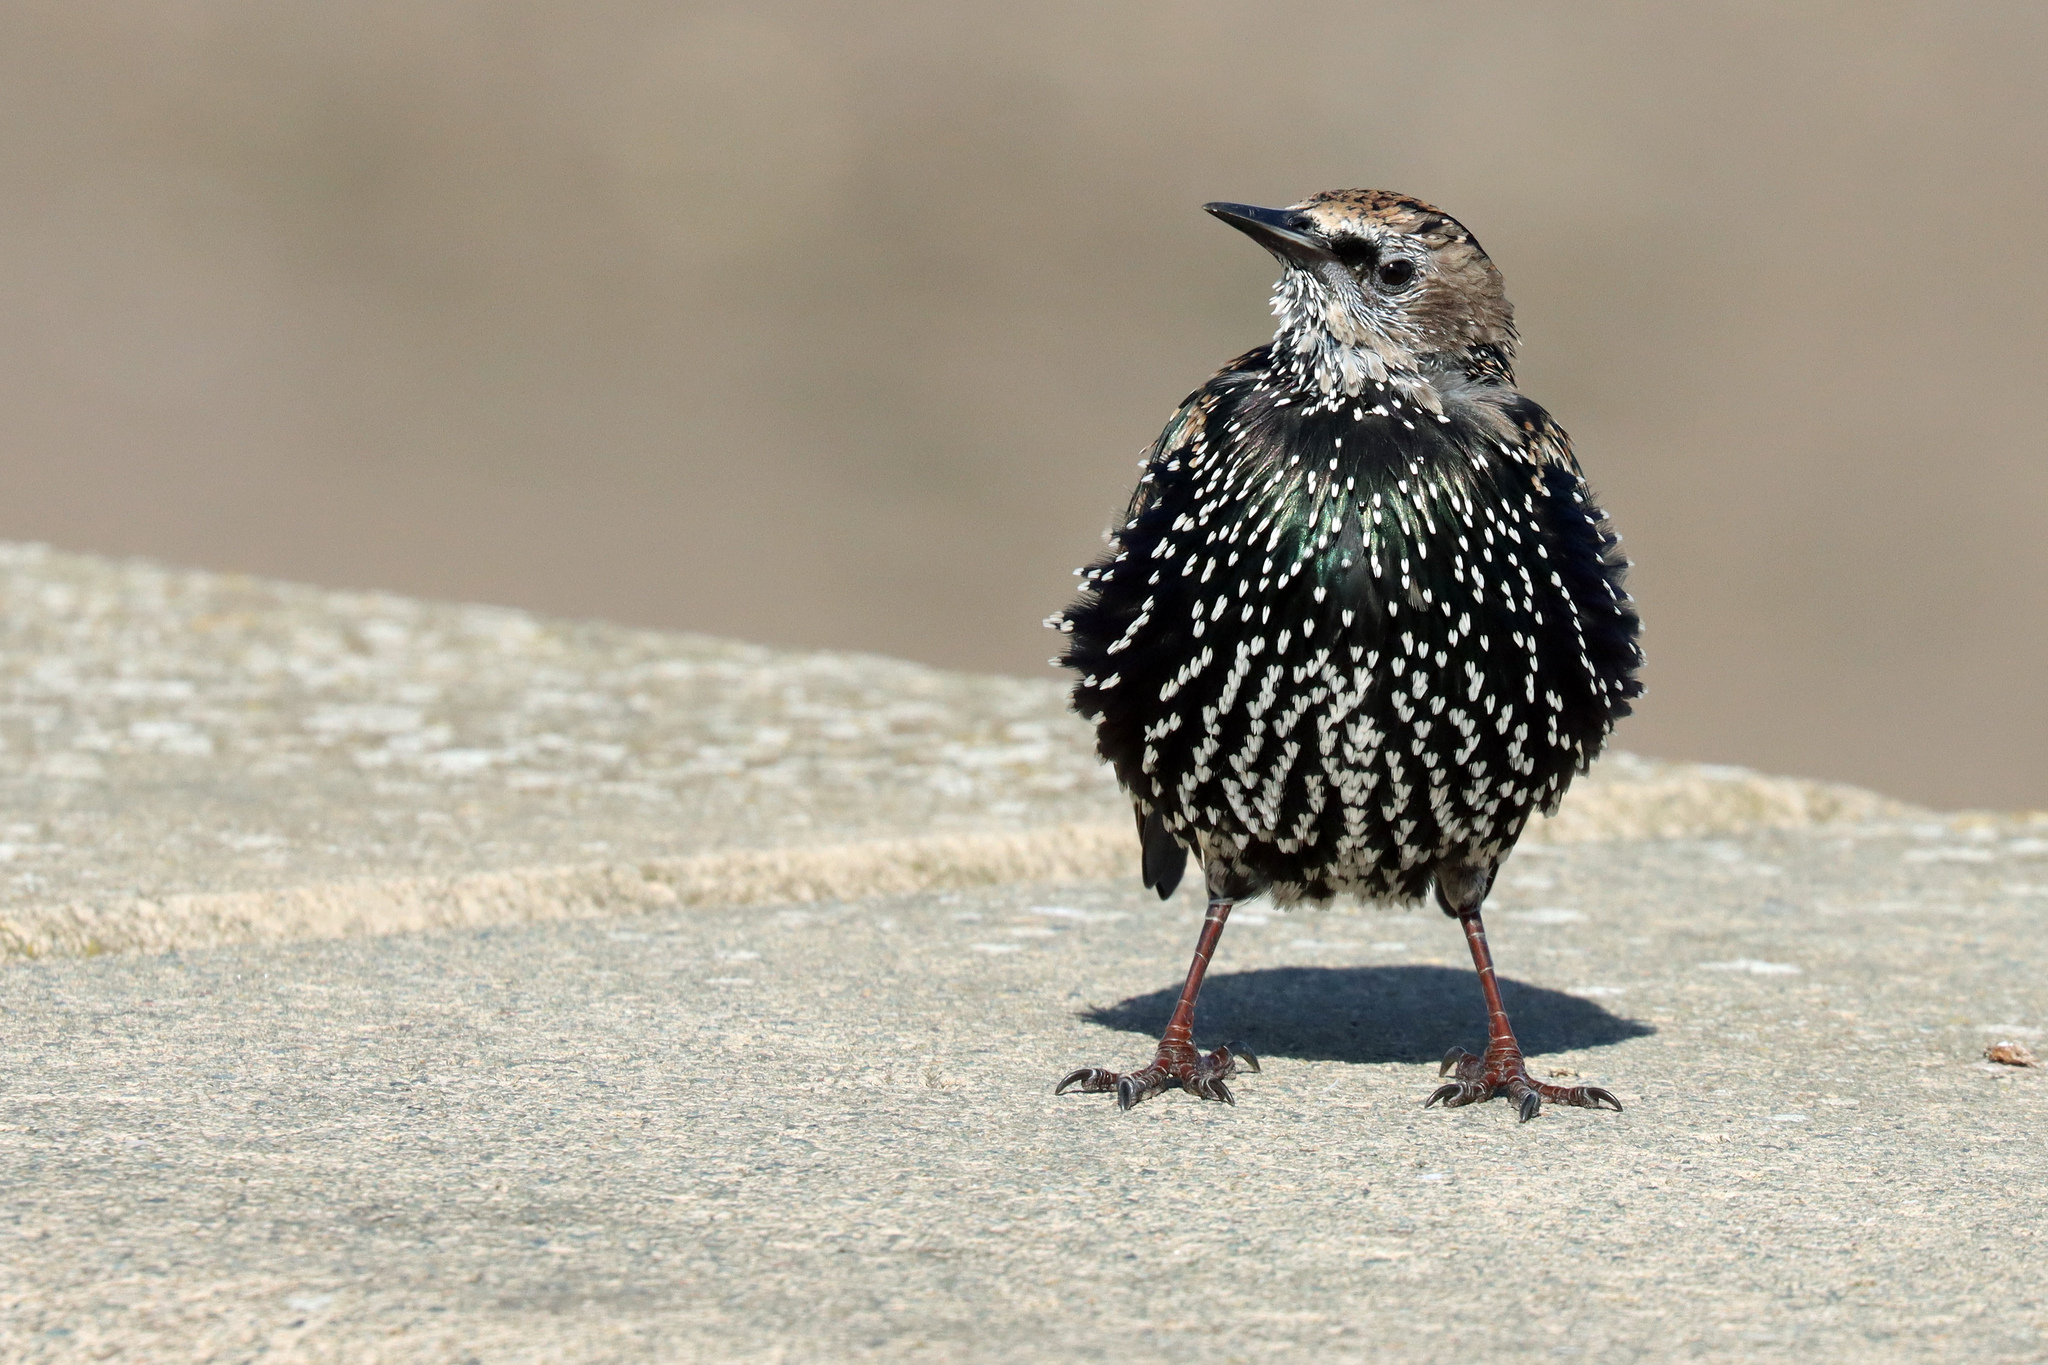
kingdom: Animalia
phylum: Chordata
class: Aves
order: Passeriformes
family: Sturnidae
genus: Sturnus
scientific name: Sturnus vulgaris
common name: Common starling
